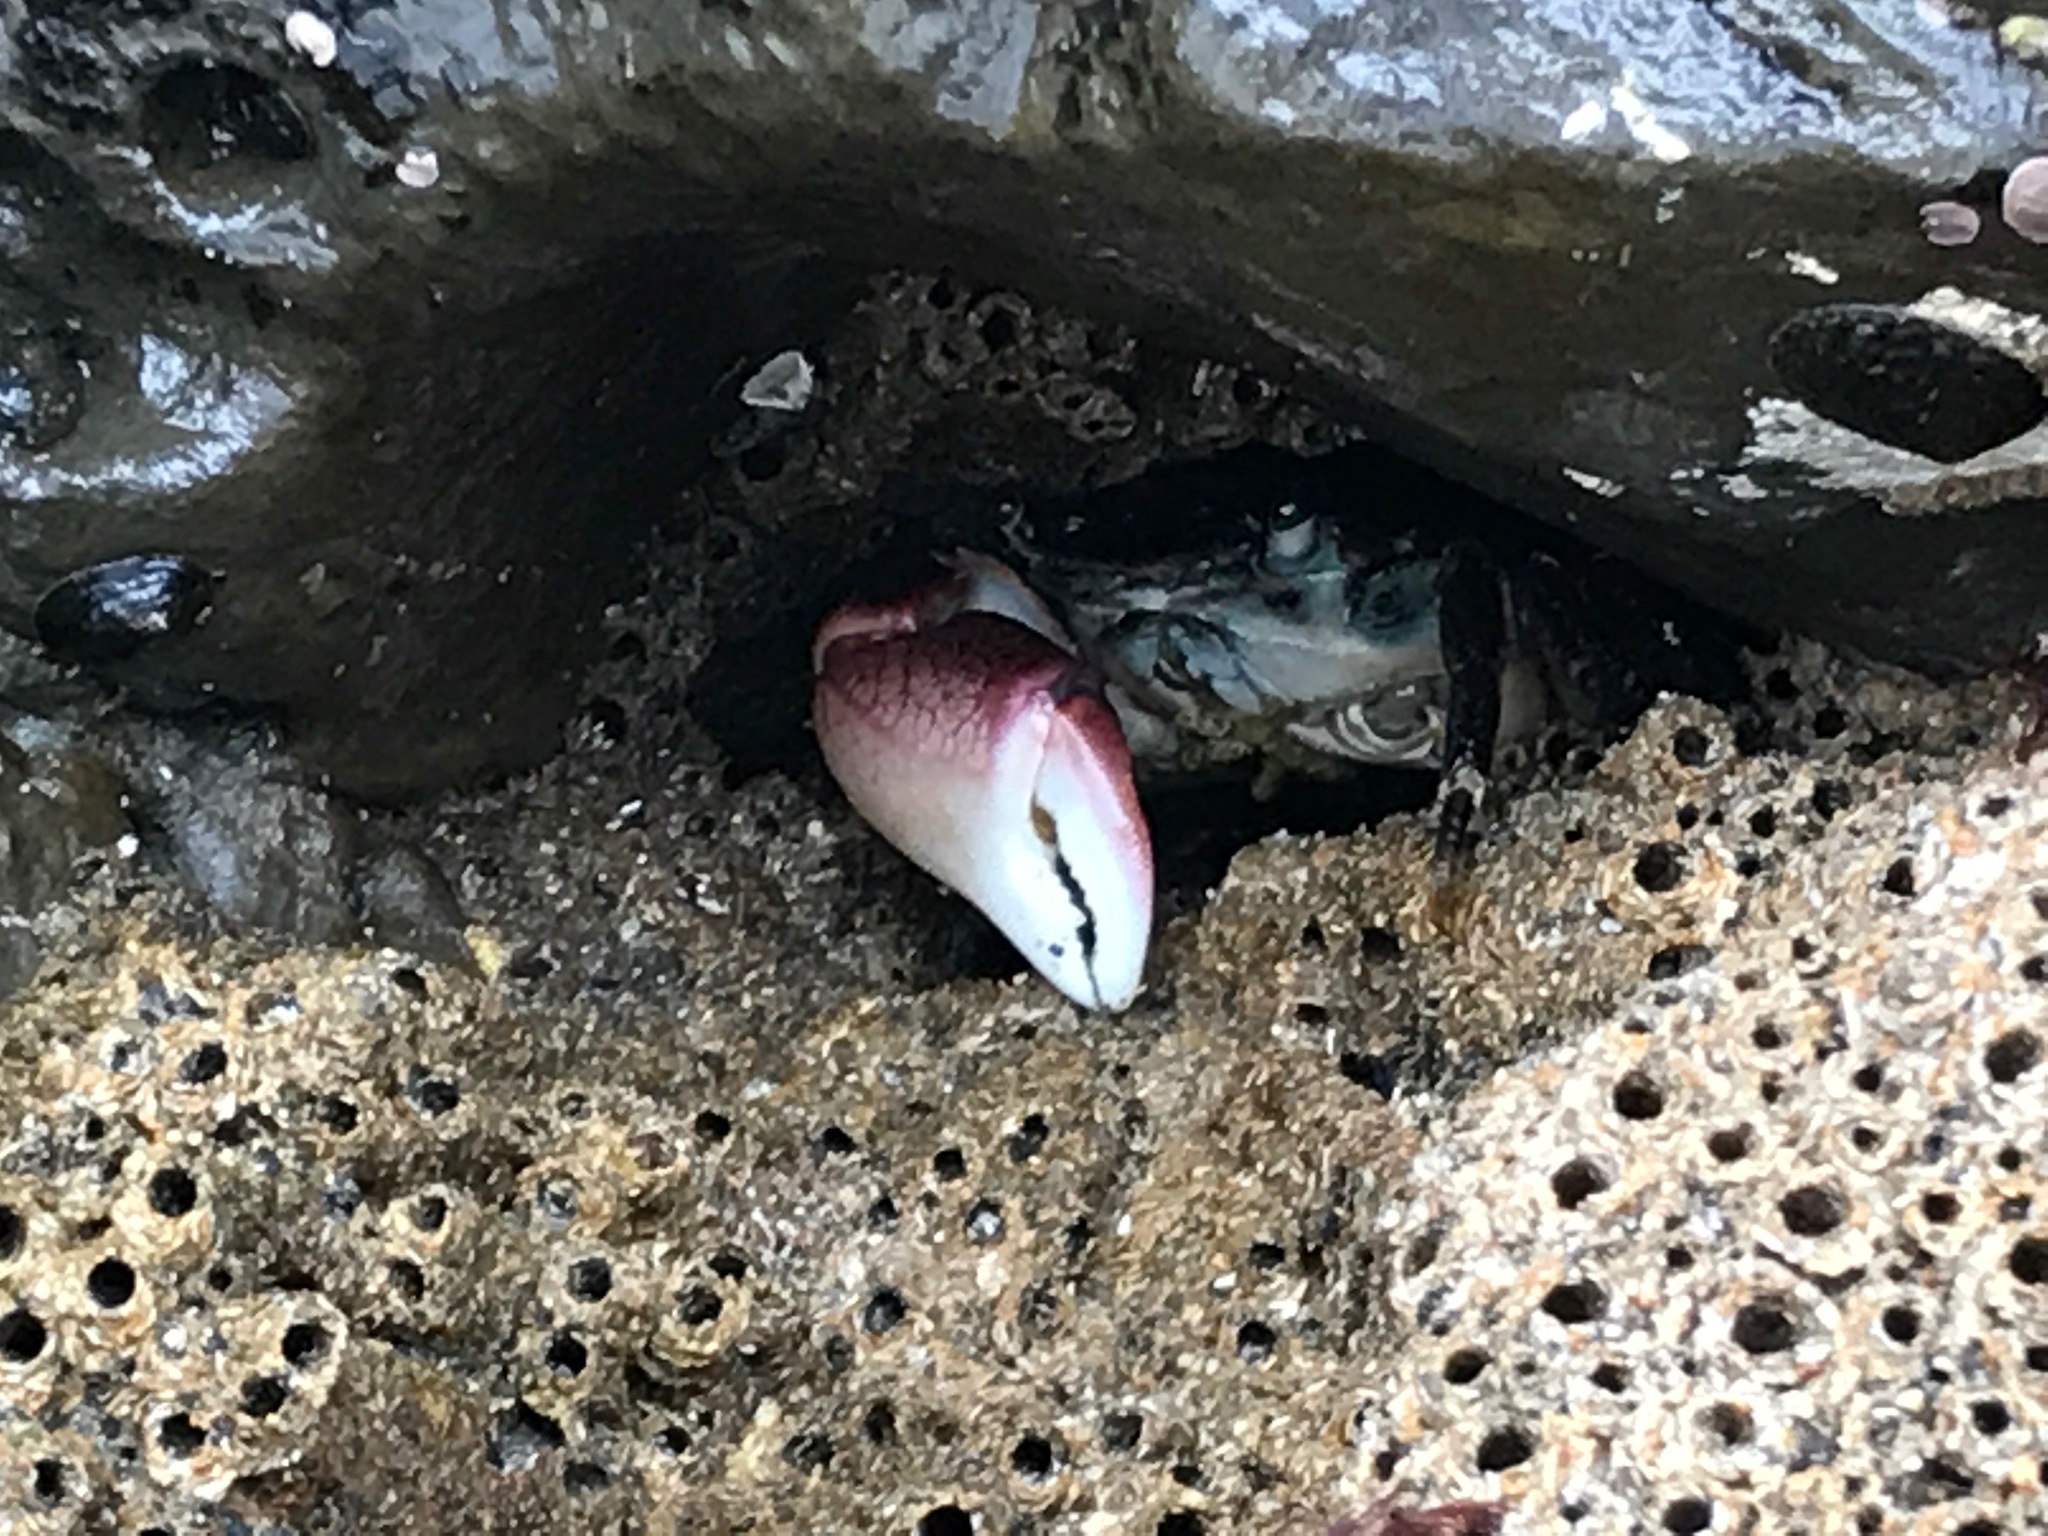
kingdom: Animalia
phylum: Arthropoda
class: Malacostraca
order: Decapoda
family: Grapsidae
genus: Pachygrapsus
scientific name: Pachygrapsus crassipes
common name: Striped shore crab
